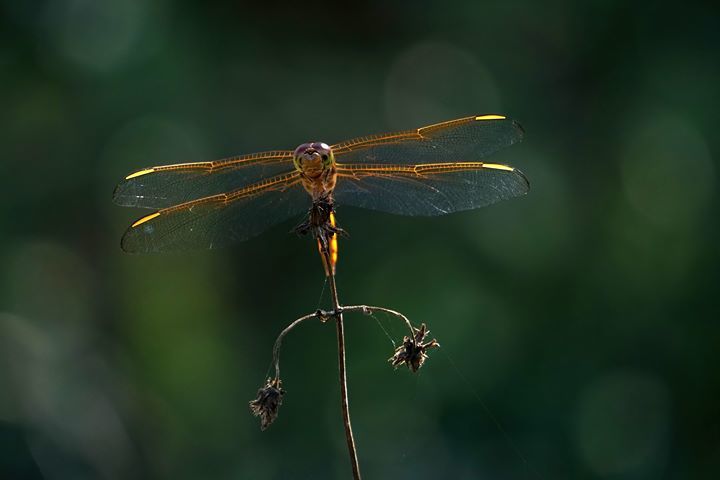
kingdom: Animalia
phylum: Arthropoda
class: Insecta
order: Odonata
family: Libellulidae
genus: Libellula
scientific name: Libellula needhami
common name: Needham's skimmer
